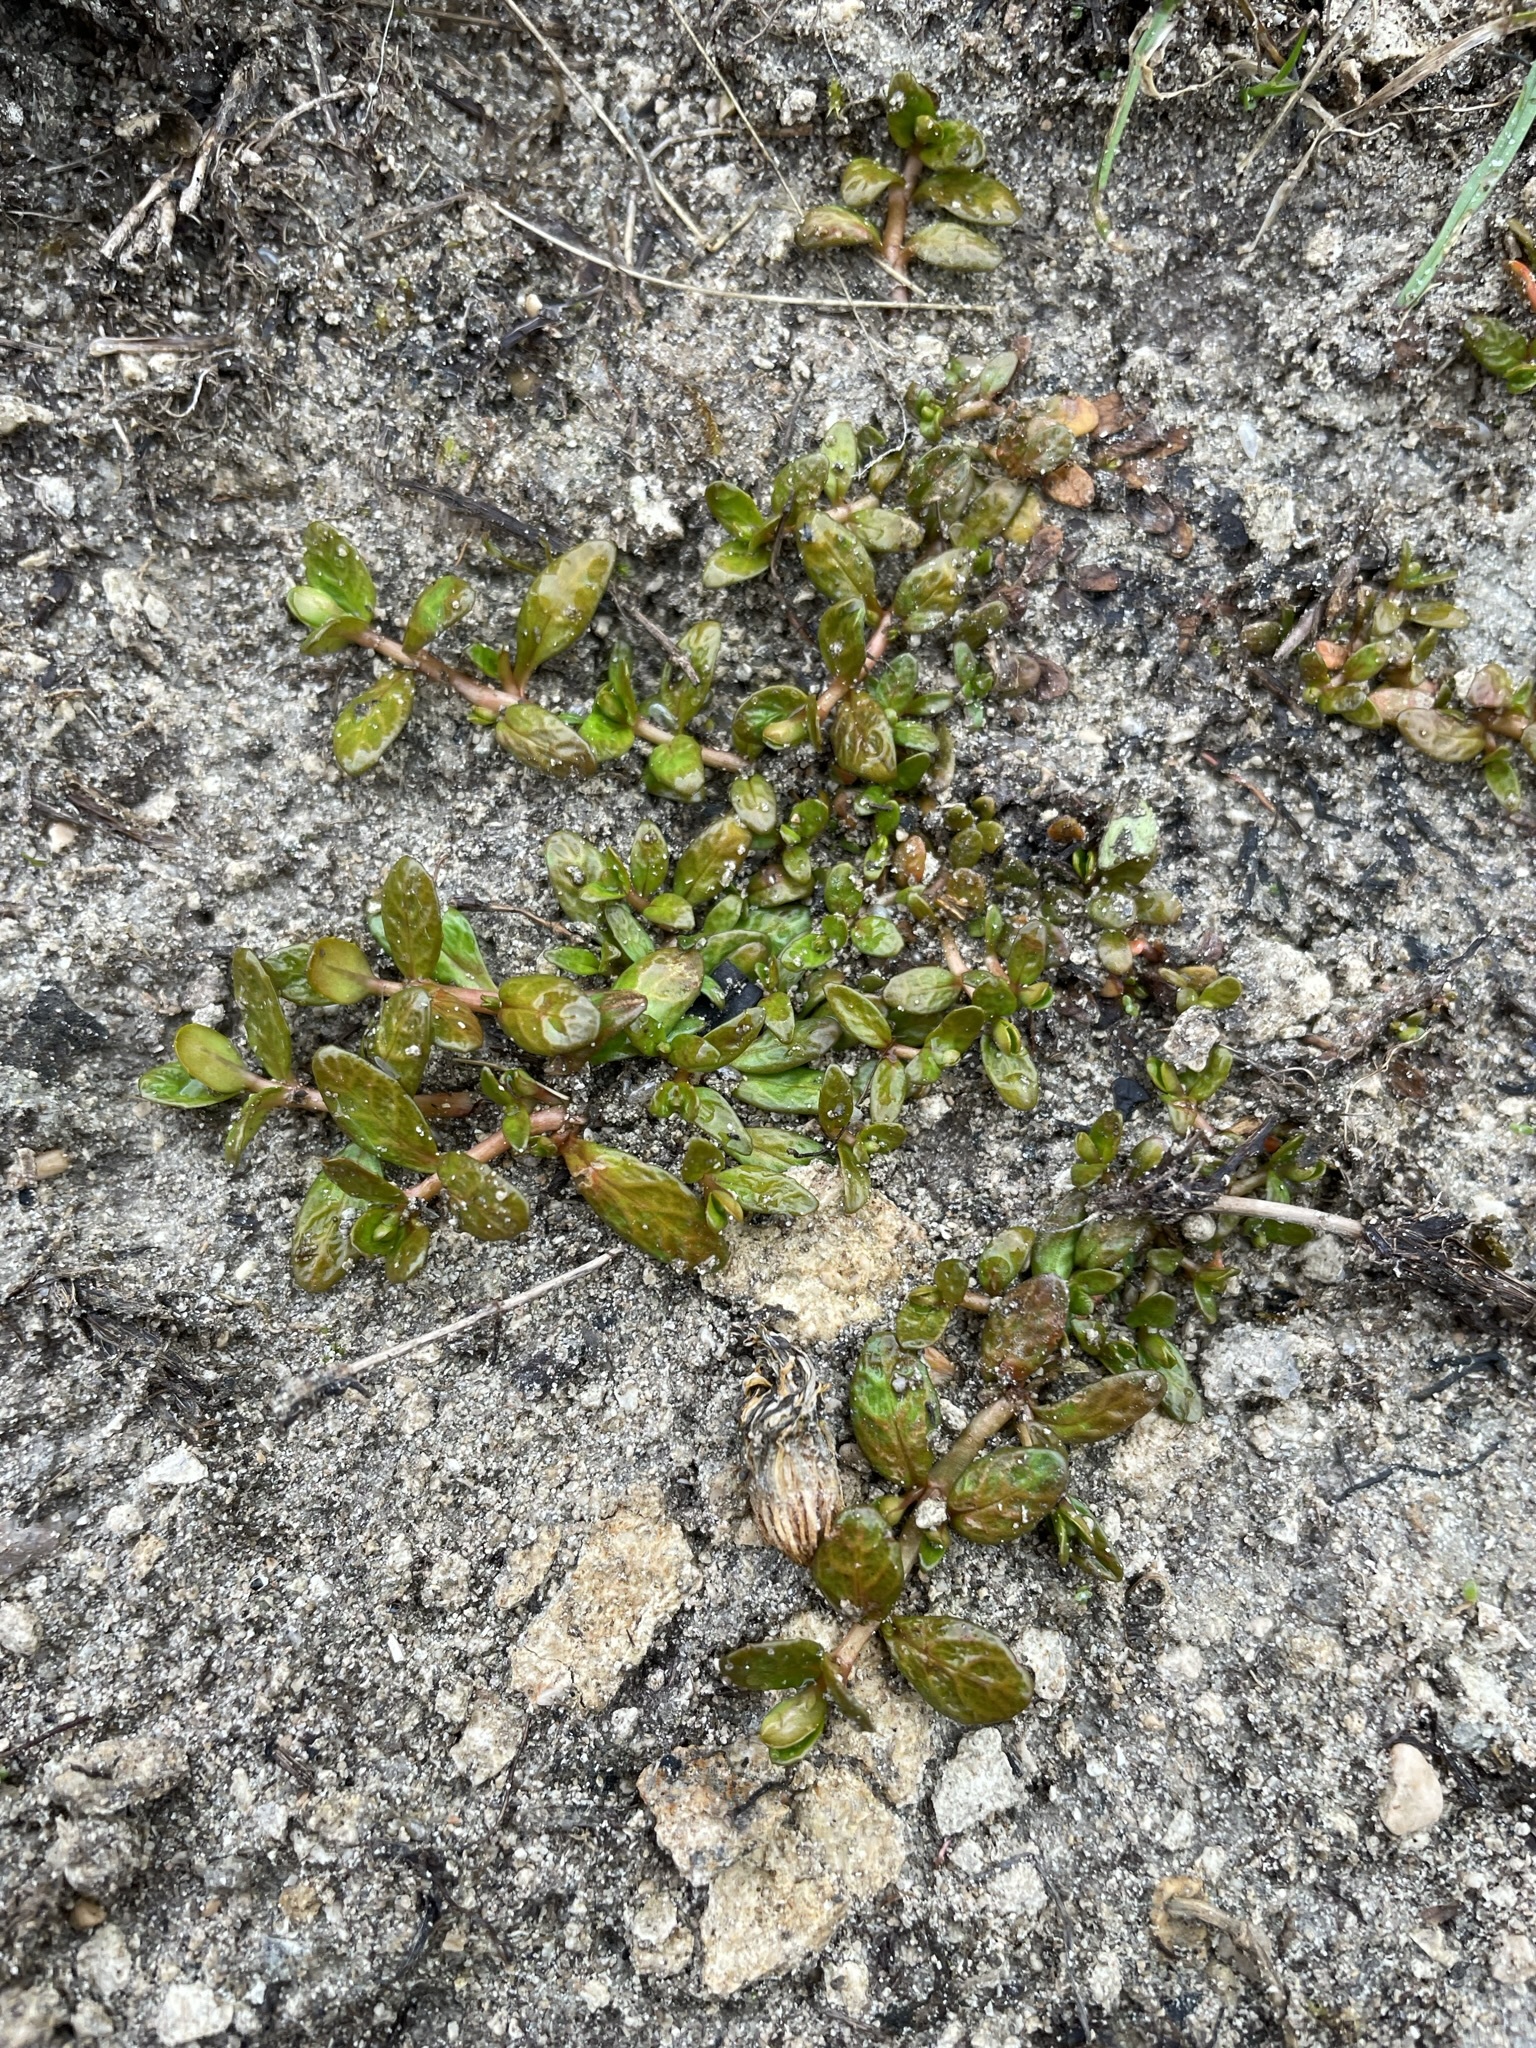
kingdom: Plantae
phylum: Tracheophyta
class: Magnoliopsida
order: Myrtales
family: Onagraceae
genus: Epilobium
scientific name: Epilobium angustum
